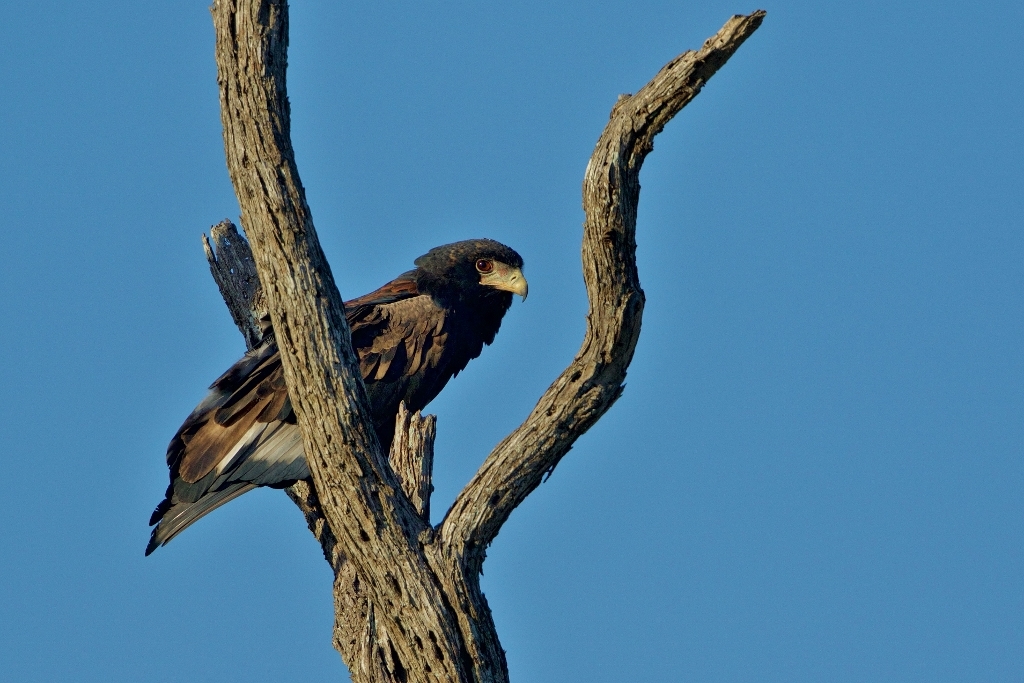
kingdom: Animalia
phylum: Chordata
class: Aves
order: Accipitriformes
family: Accipitridae
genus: Terathopius
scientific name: Terathopius ecaudatus
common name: Bateleur
